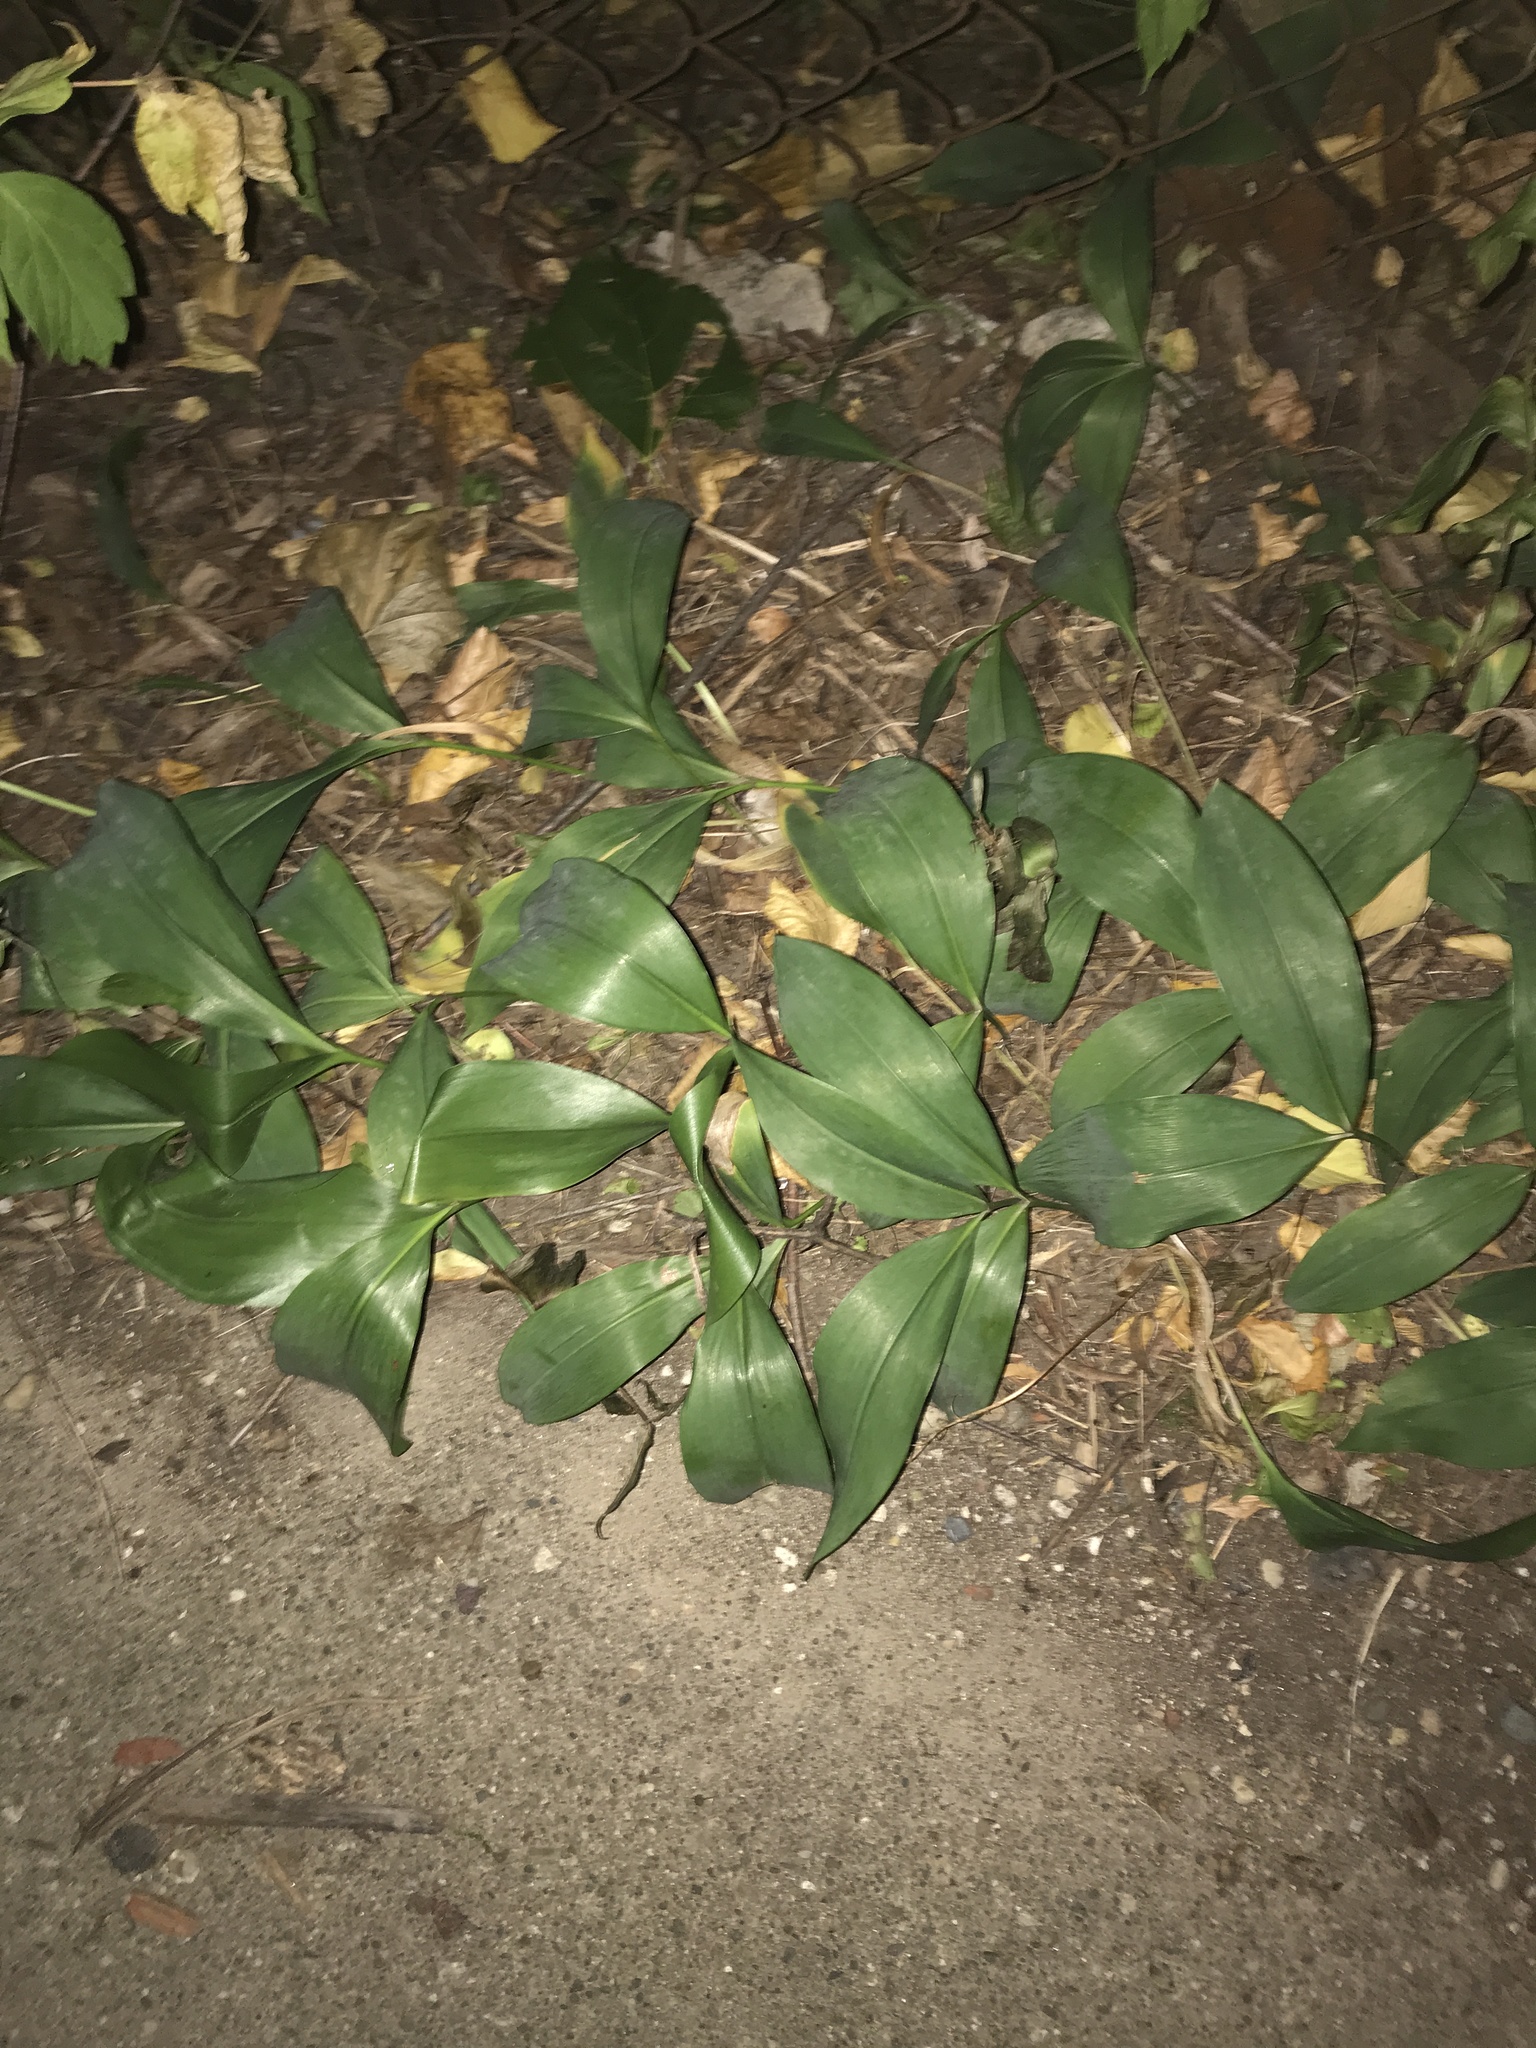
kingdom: Plantae
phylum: Tracheophyta
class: Liliopsida
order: Asparagales
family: Asparagaceae
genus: Convallaria
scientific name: Convallaria majalis
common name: Lily-of-the-valley
